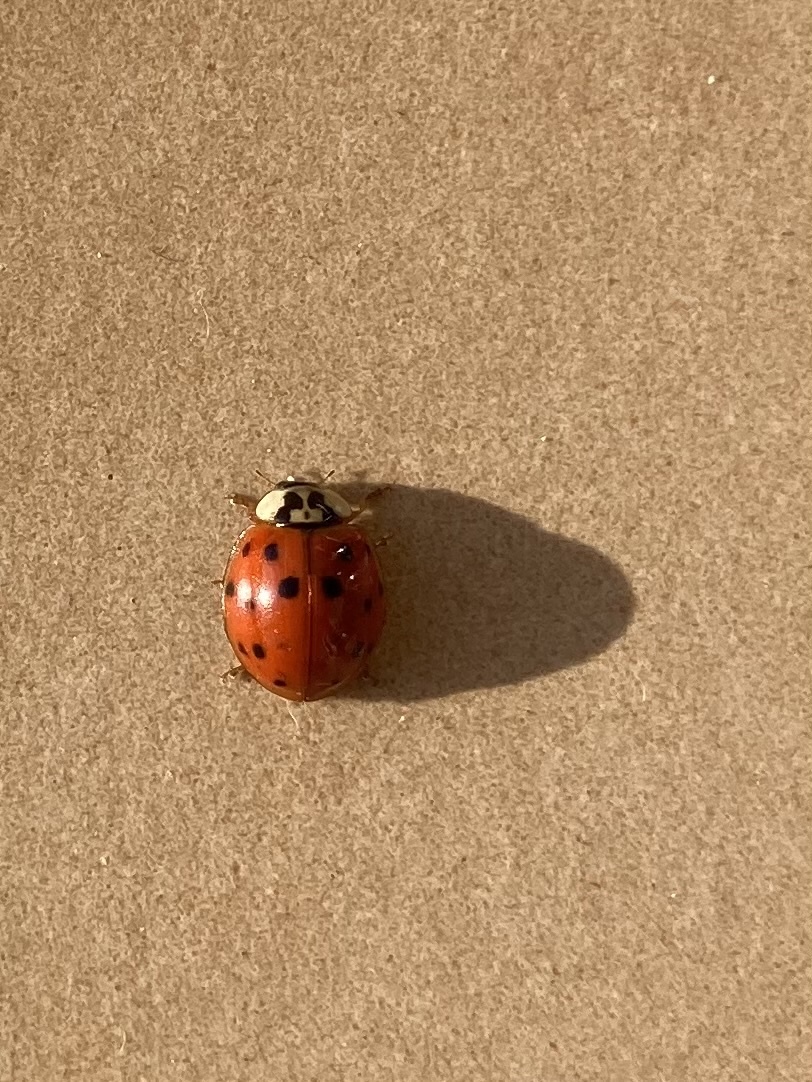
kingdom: Animalia
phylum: Arthropoda
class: Insecta
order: Coleoptera
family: Coccinellidae
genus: Harmonia
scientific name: Harmonia axyridis
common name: Harlequin ladybird
